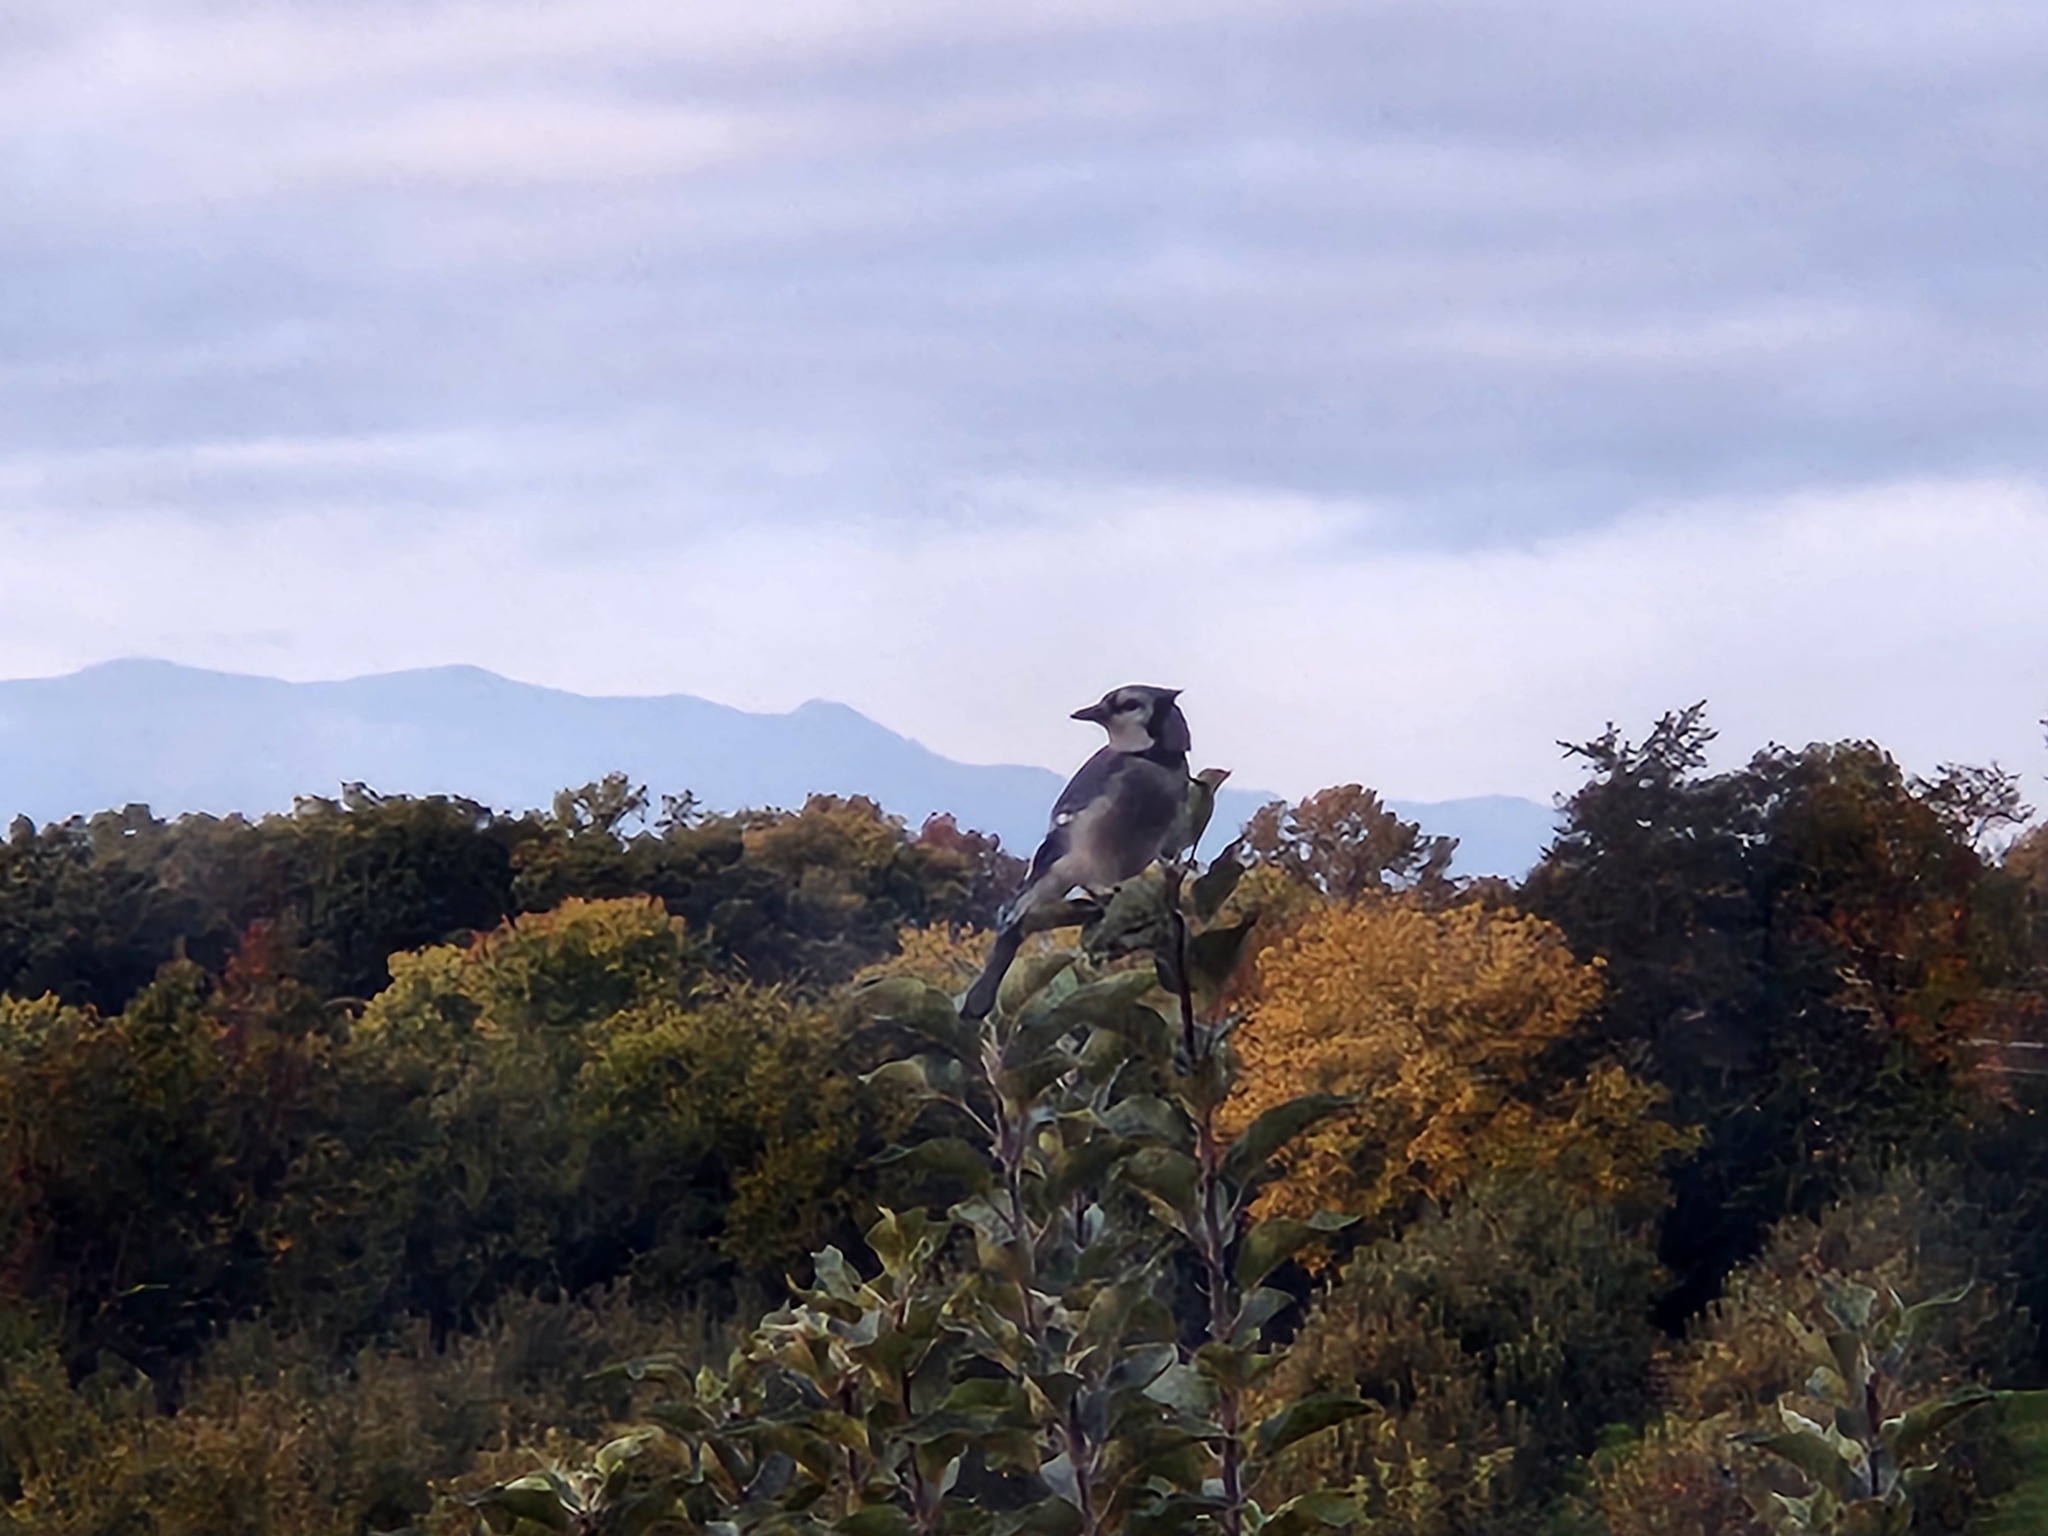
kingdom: Animalia
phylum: Chordata
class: Aves
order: Passeriformes
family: Corvidae
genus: Cyanocitta
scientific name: Cyanocitta cristata
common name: Blue jay
